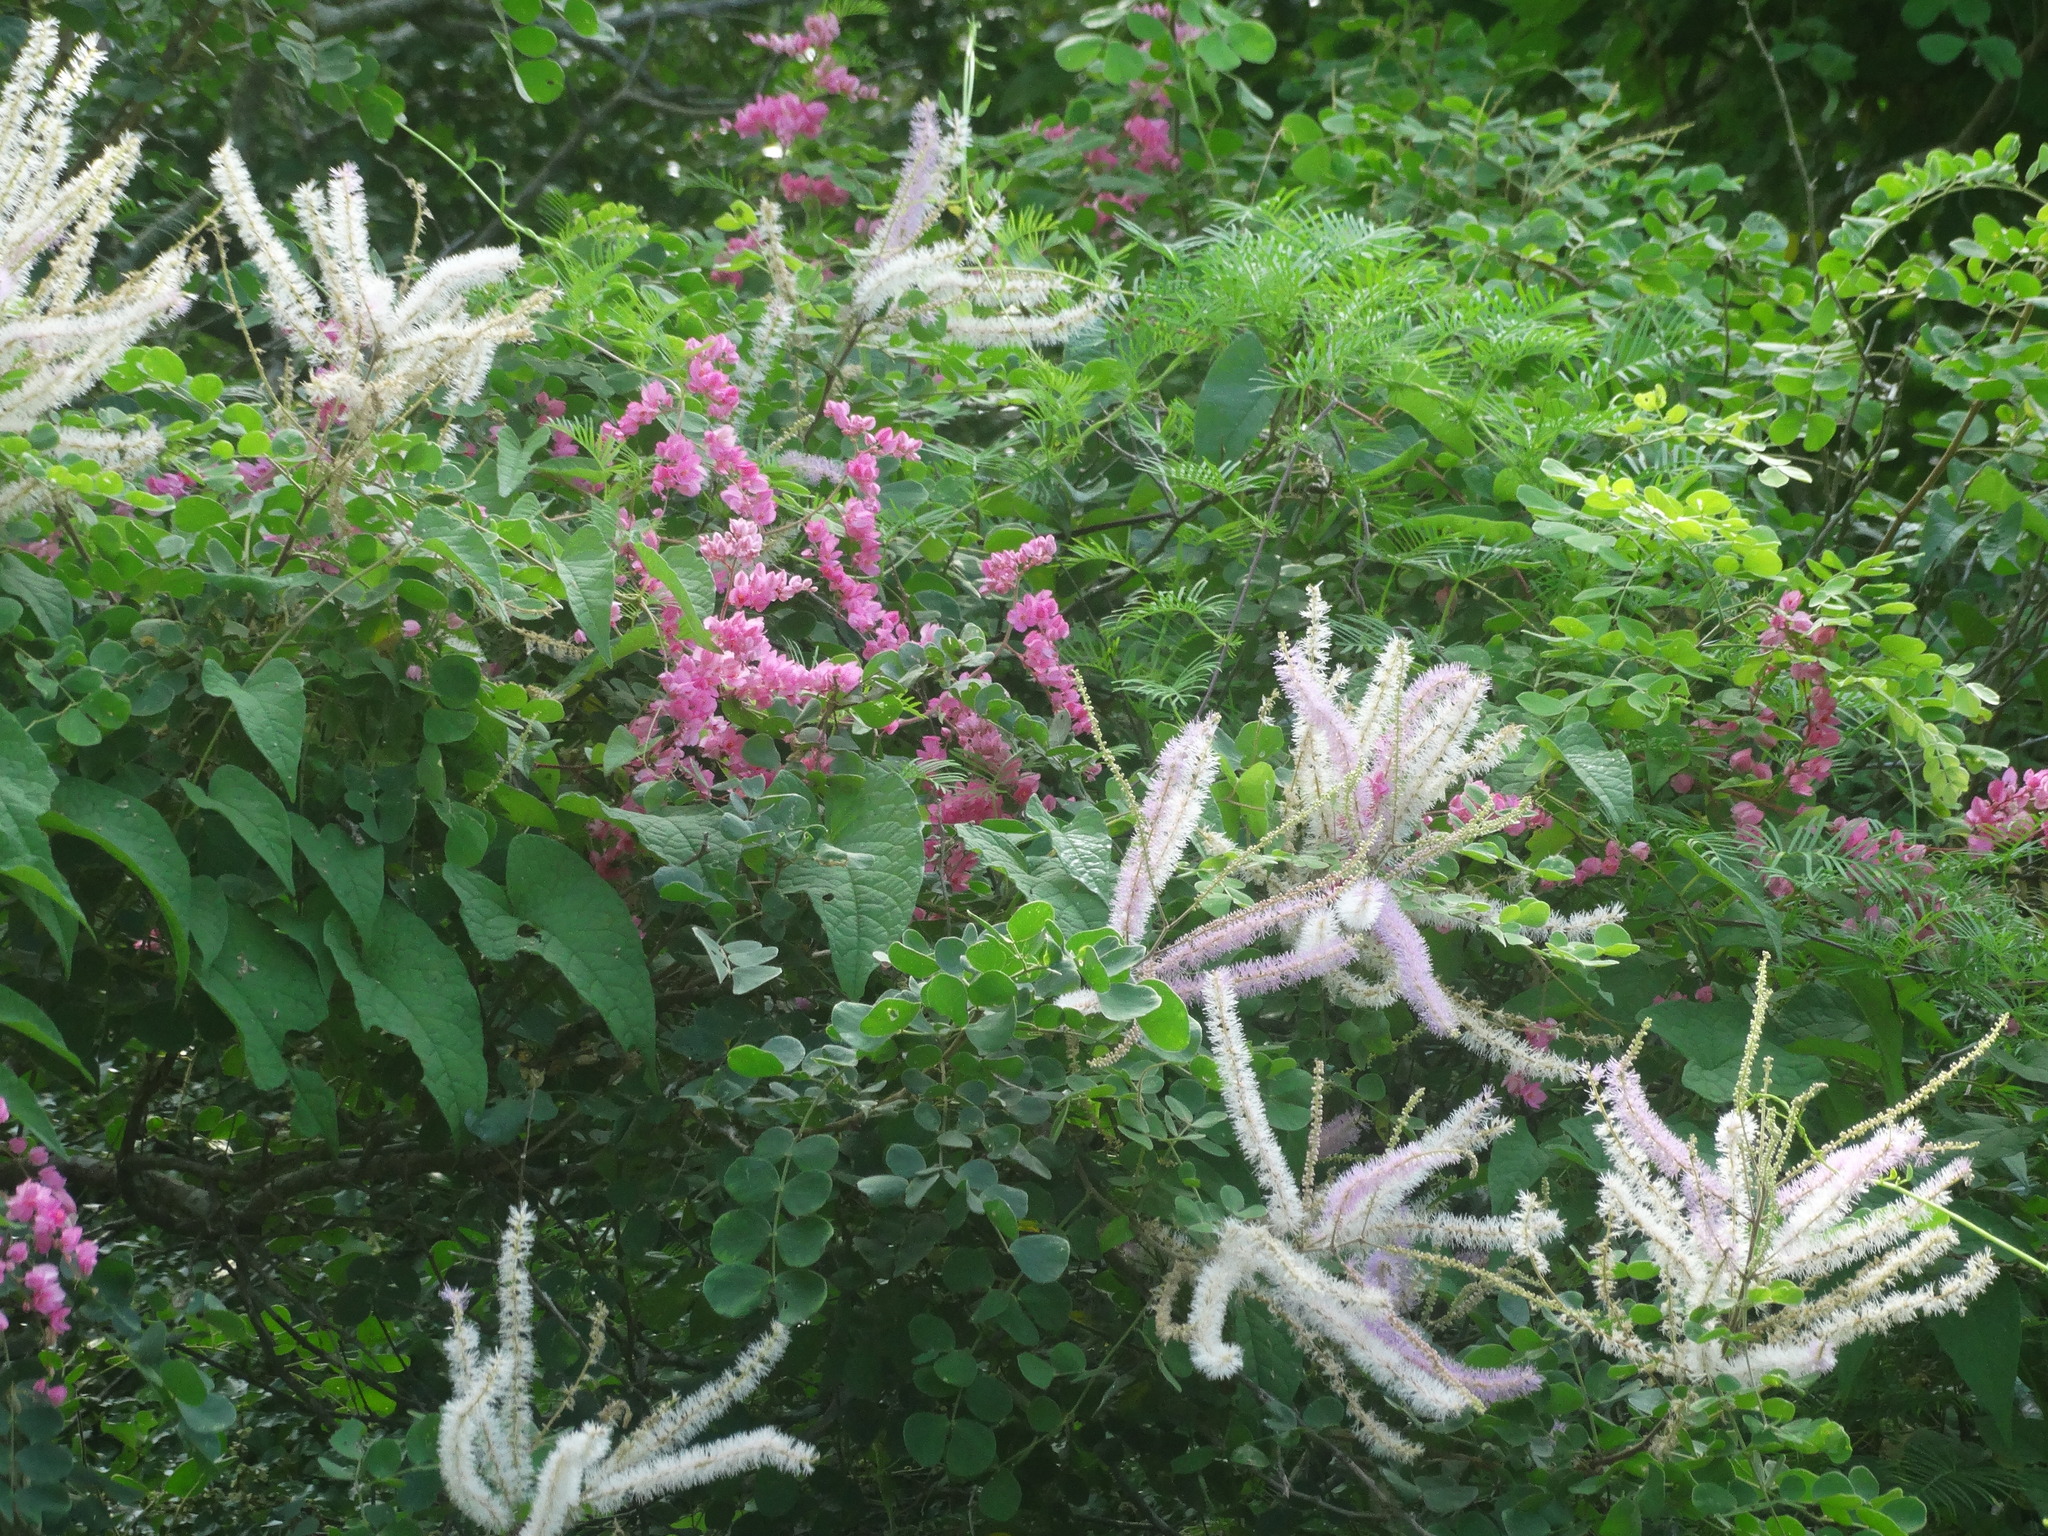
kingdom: Plantae
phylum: Tracheophyta
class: Magnoliopsida
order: Fabales
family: Fabaceae
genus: Mimosa
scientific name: Mimosa spirocarpa
